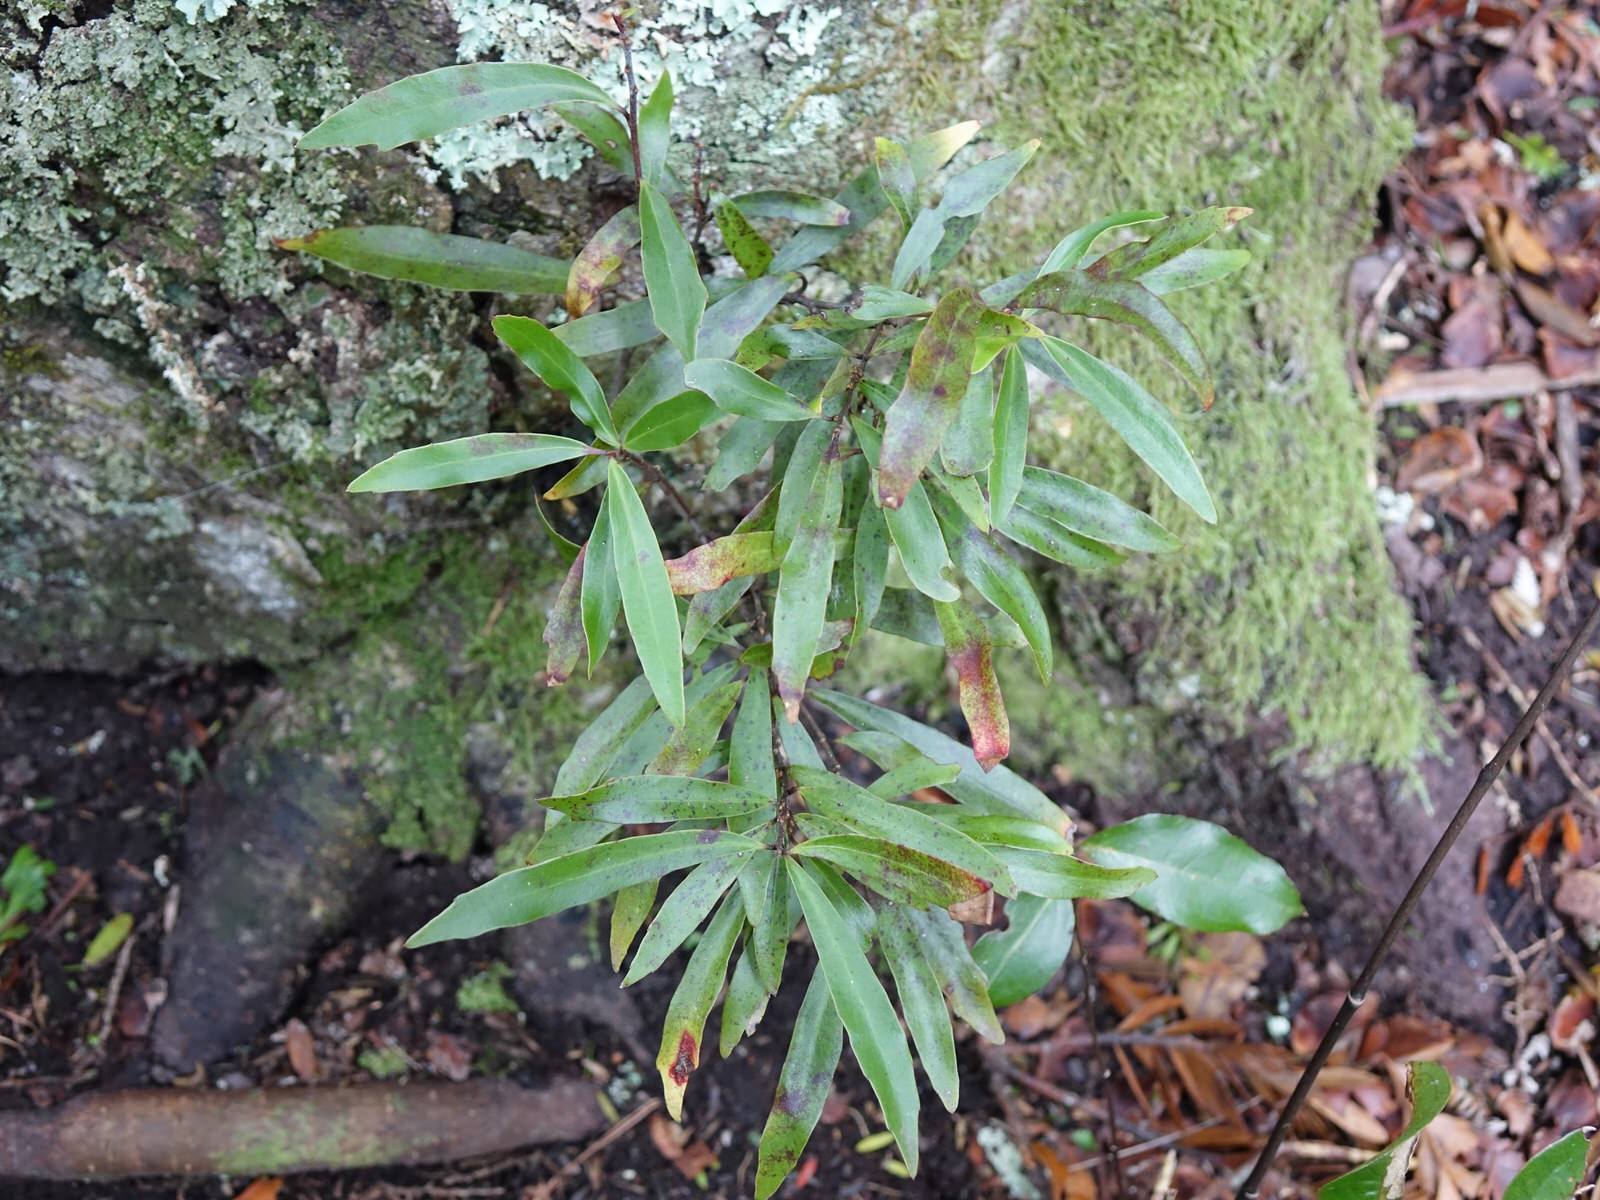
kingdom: Plantae
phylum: Tracheophyta
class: Magnoliopsida
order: Asterales
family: Alseuosmiaceae
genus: Alseuosmia
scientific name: Alseuosmia banksii
